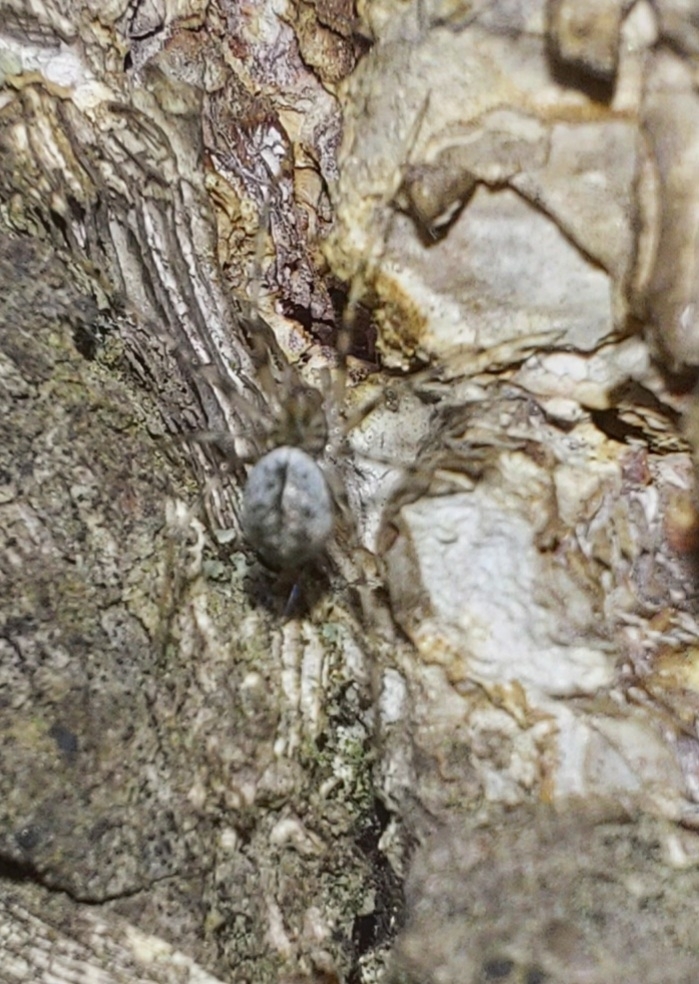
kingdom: Animalia
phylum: Arthropoda
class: Arachnida
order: Araneae
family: Linyphiidae
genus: Drapetisca
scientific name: Drapetisca socialis
